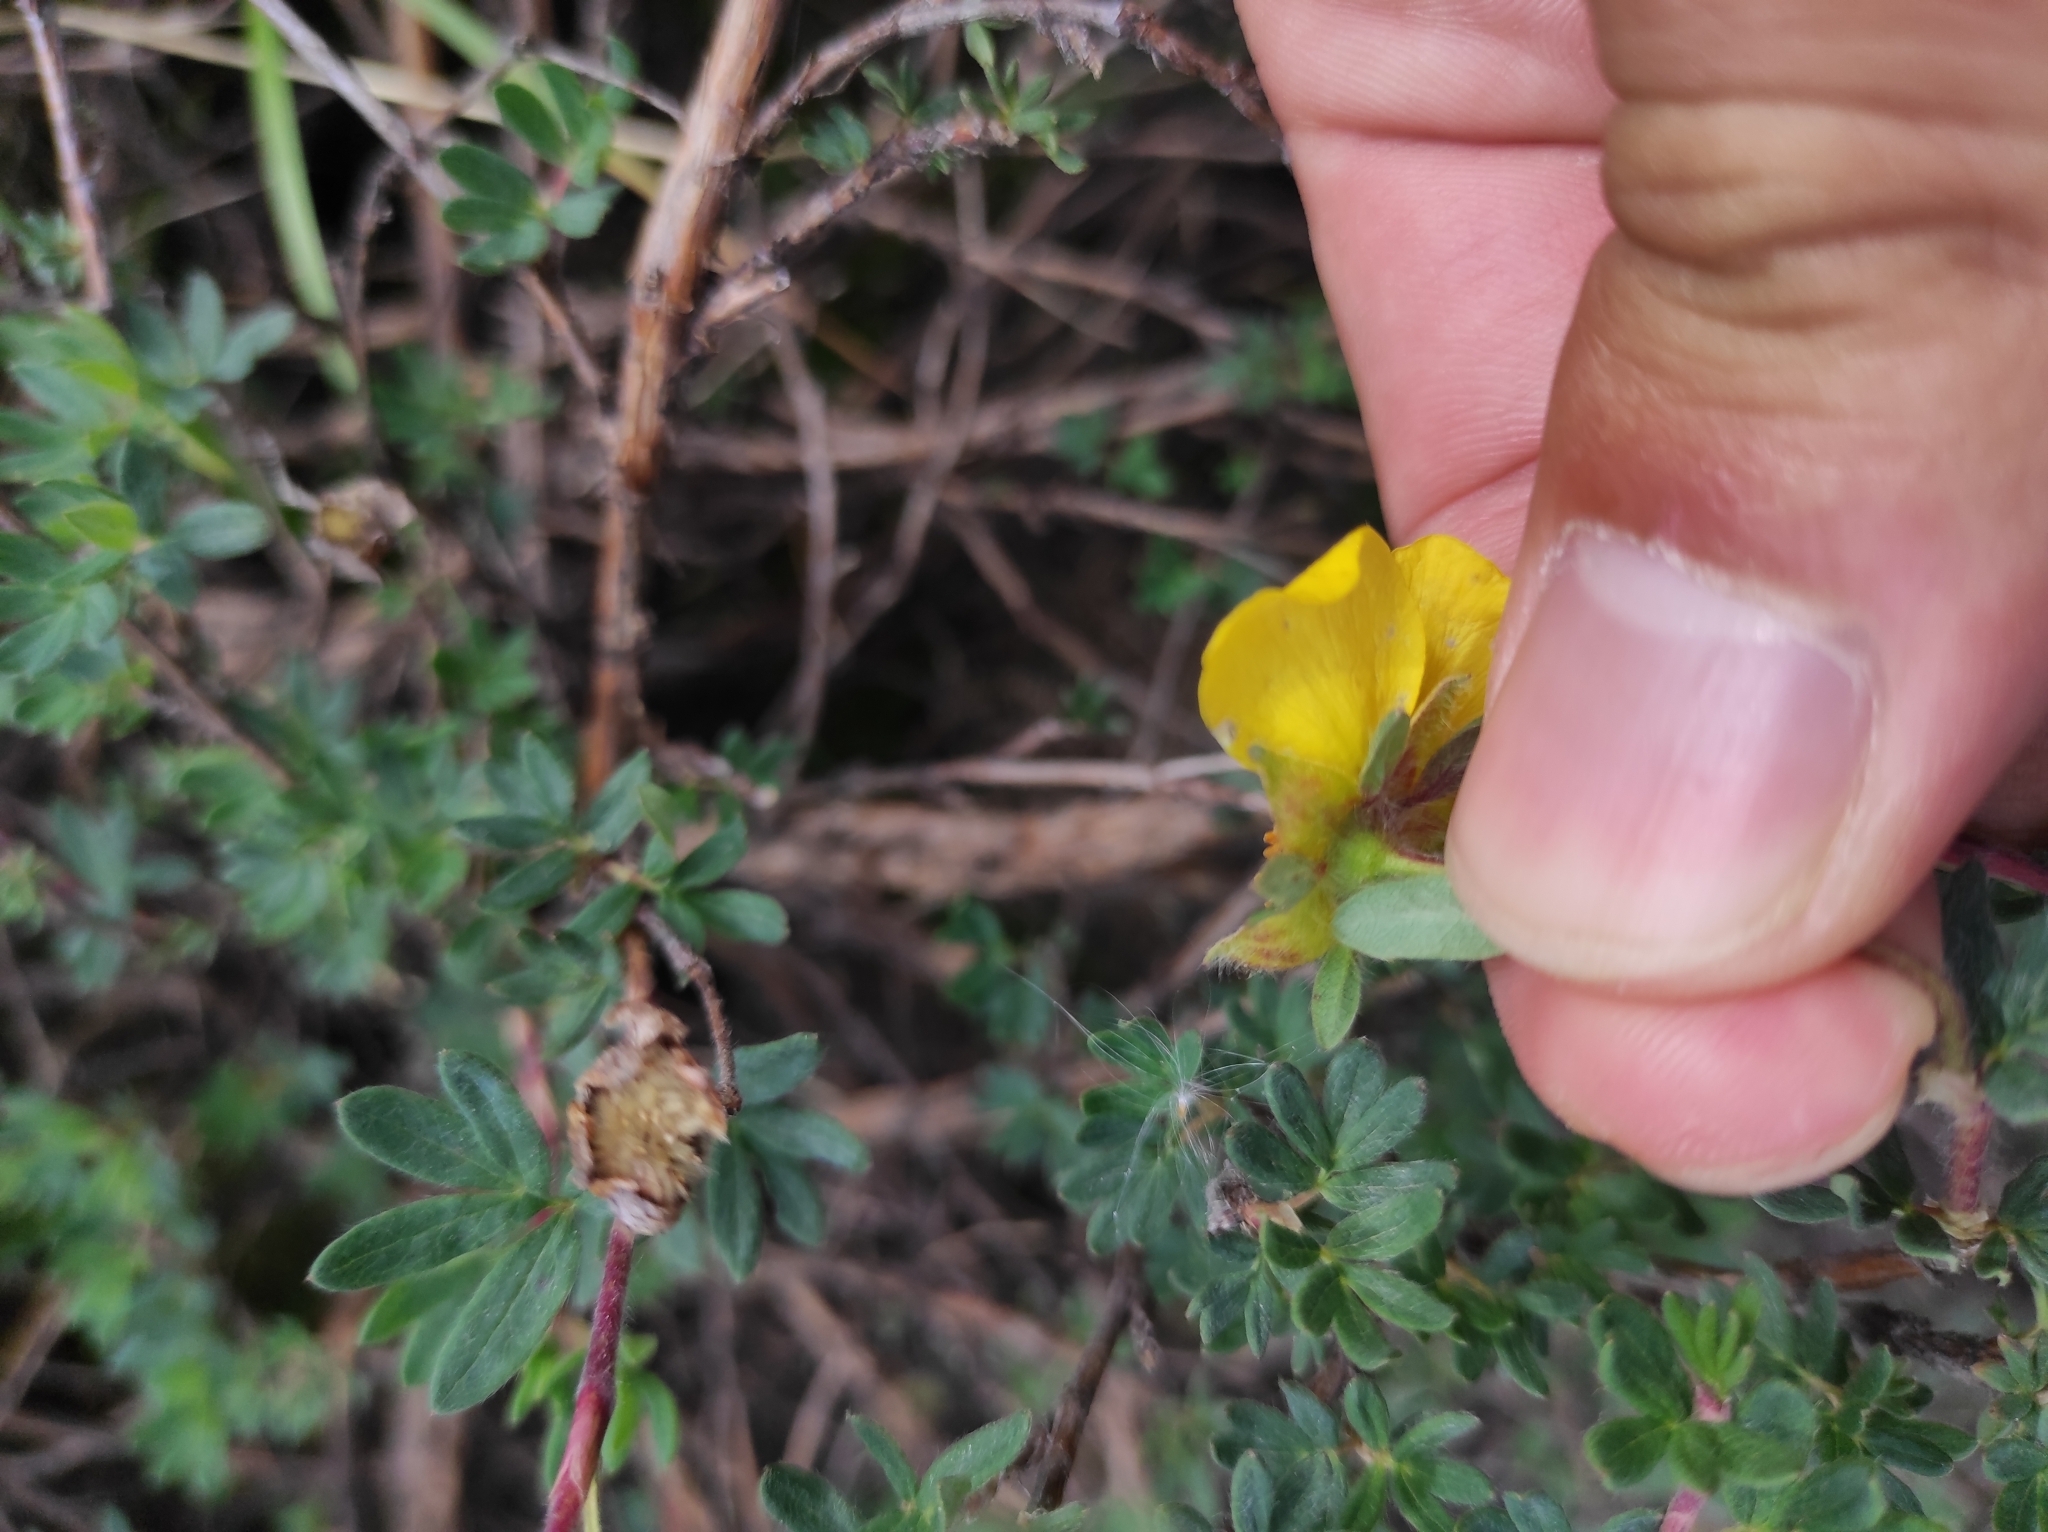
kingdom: Plantae
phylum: Tracheophyta
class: Magnoliopsida
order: Rosales
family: Rosaceae
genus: Dasiphora
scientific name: Dasiphora fruticosa
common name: Shrubby cinquefoil
